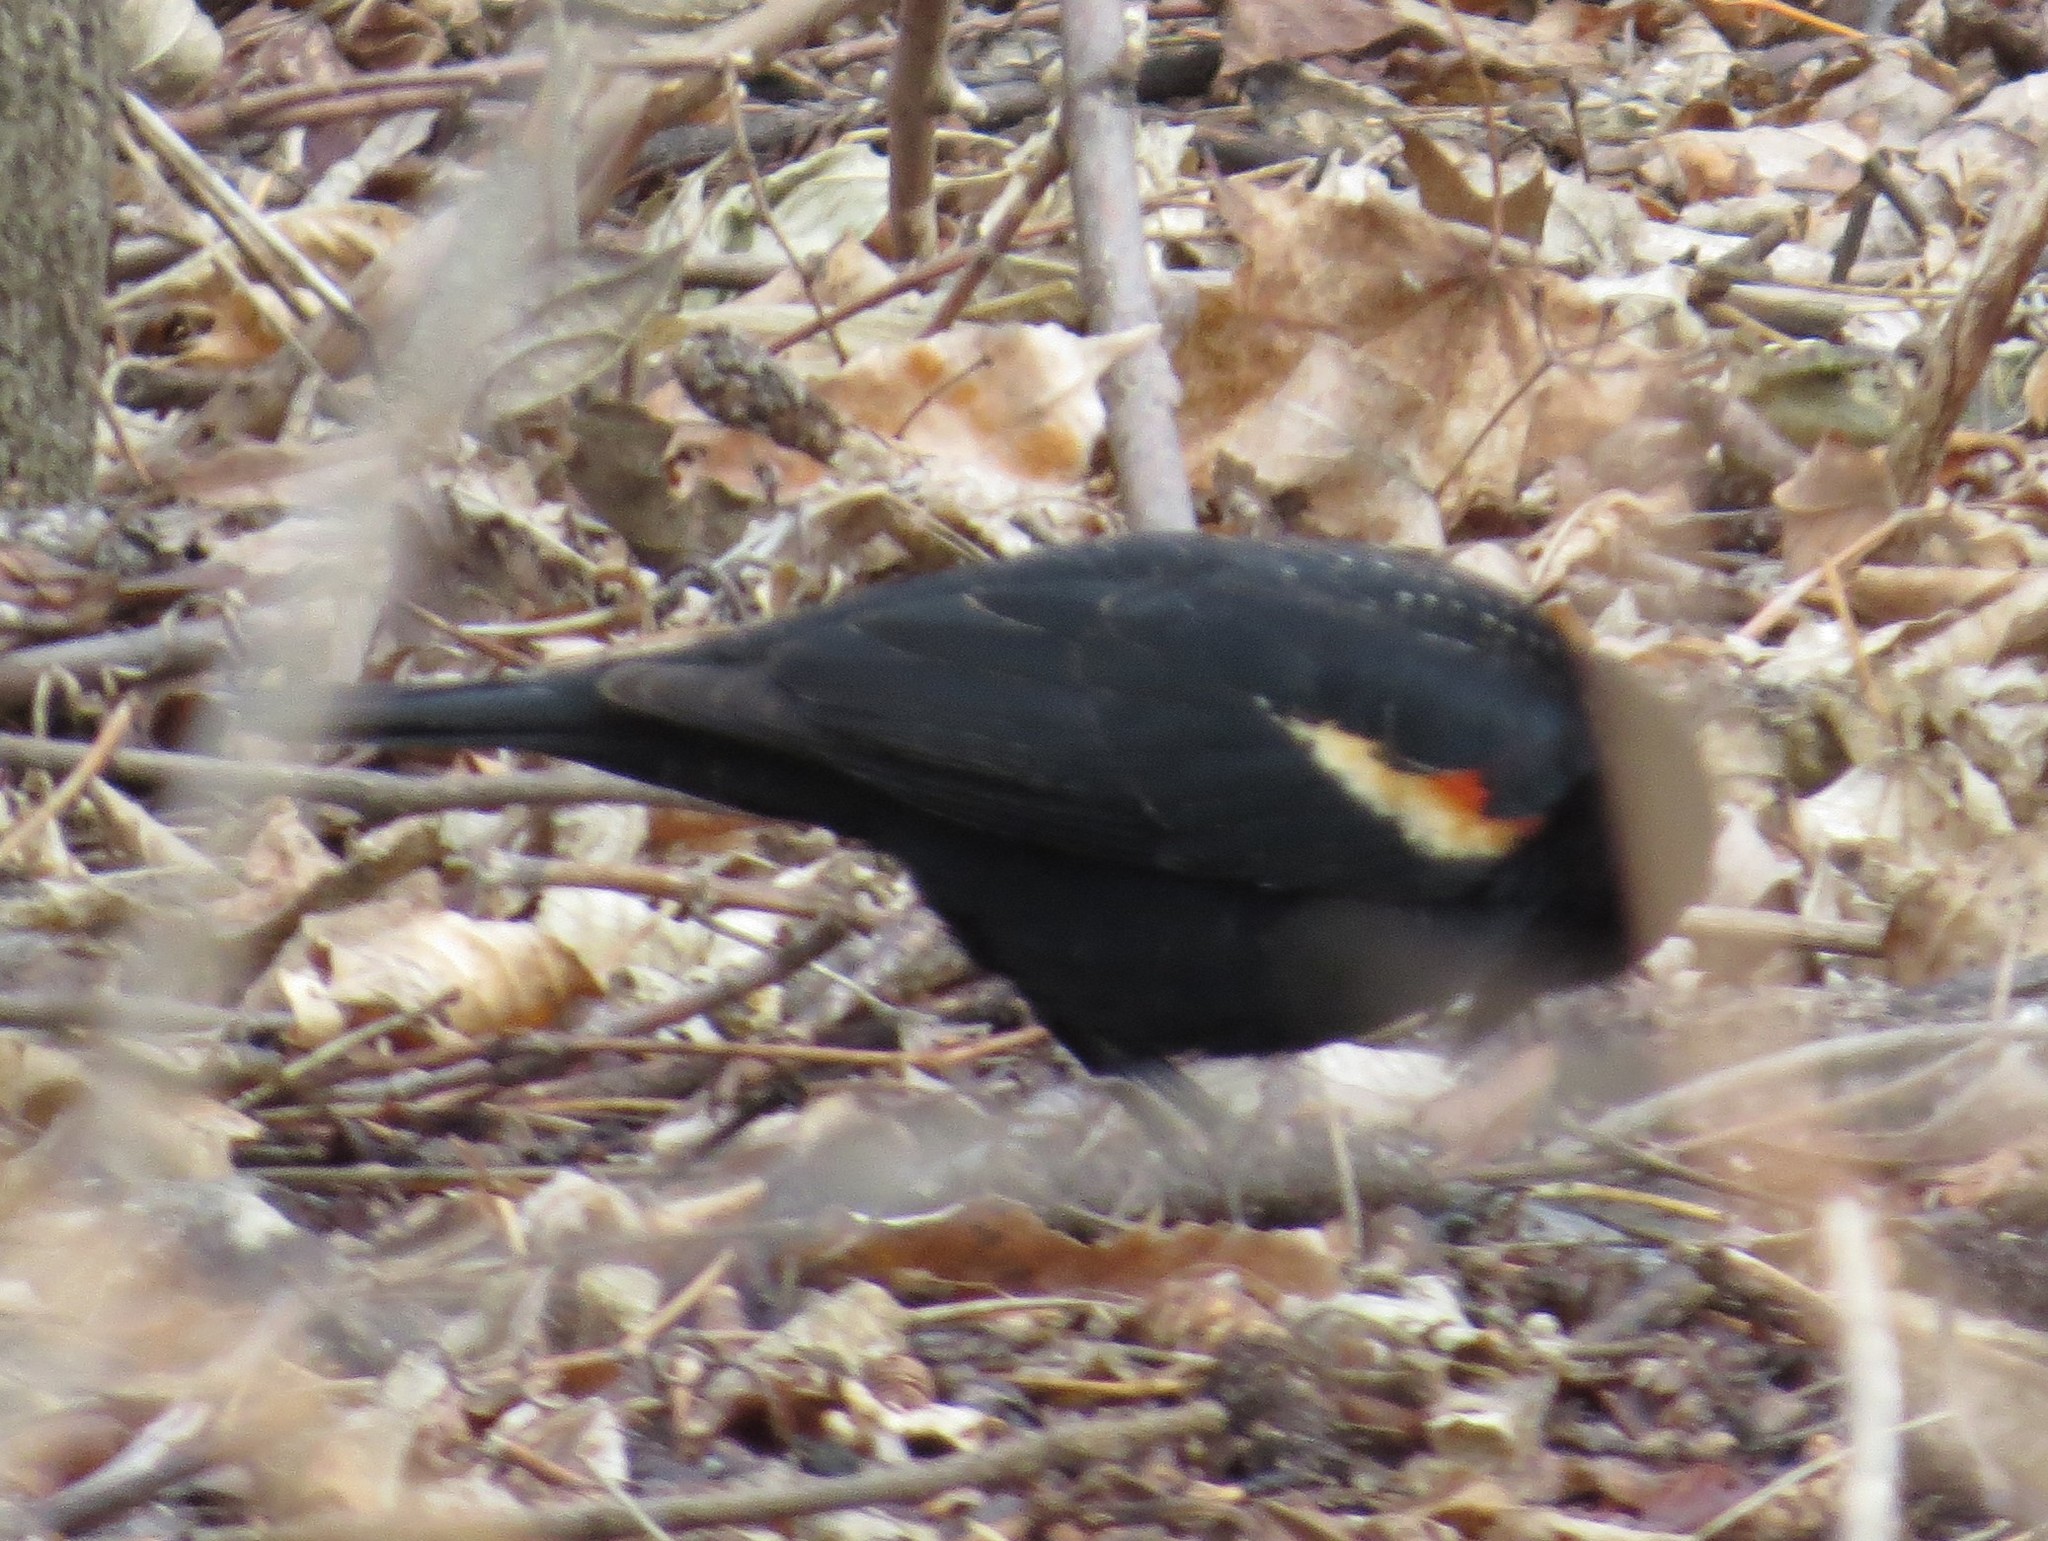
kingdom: Animalia
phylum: Chordata
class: Aves
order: Passeriformes
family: Icteridae
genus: Agelaius
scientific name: Agelaius phoeniceus
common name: Red-winged blackbird
